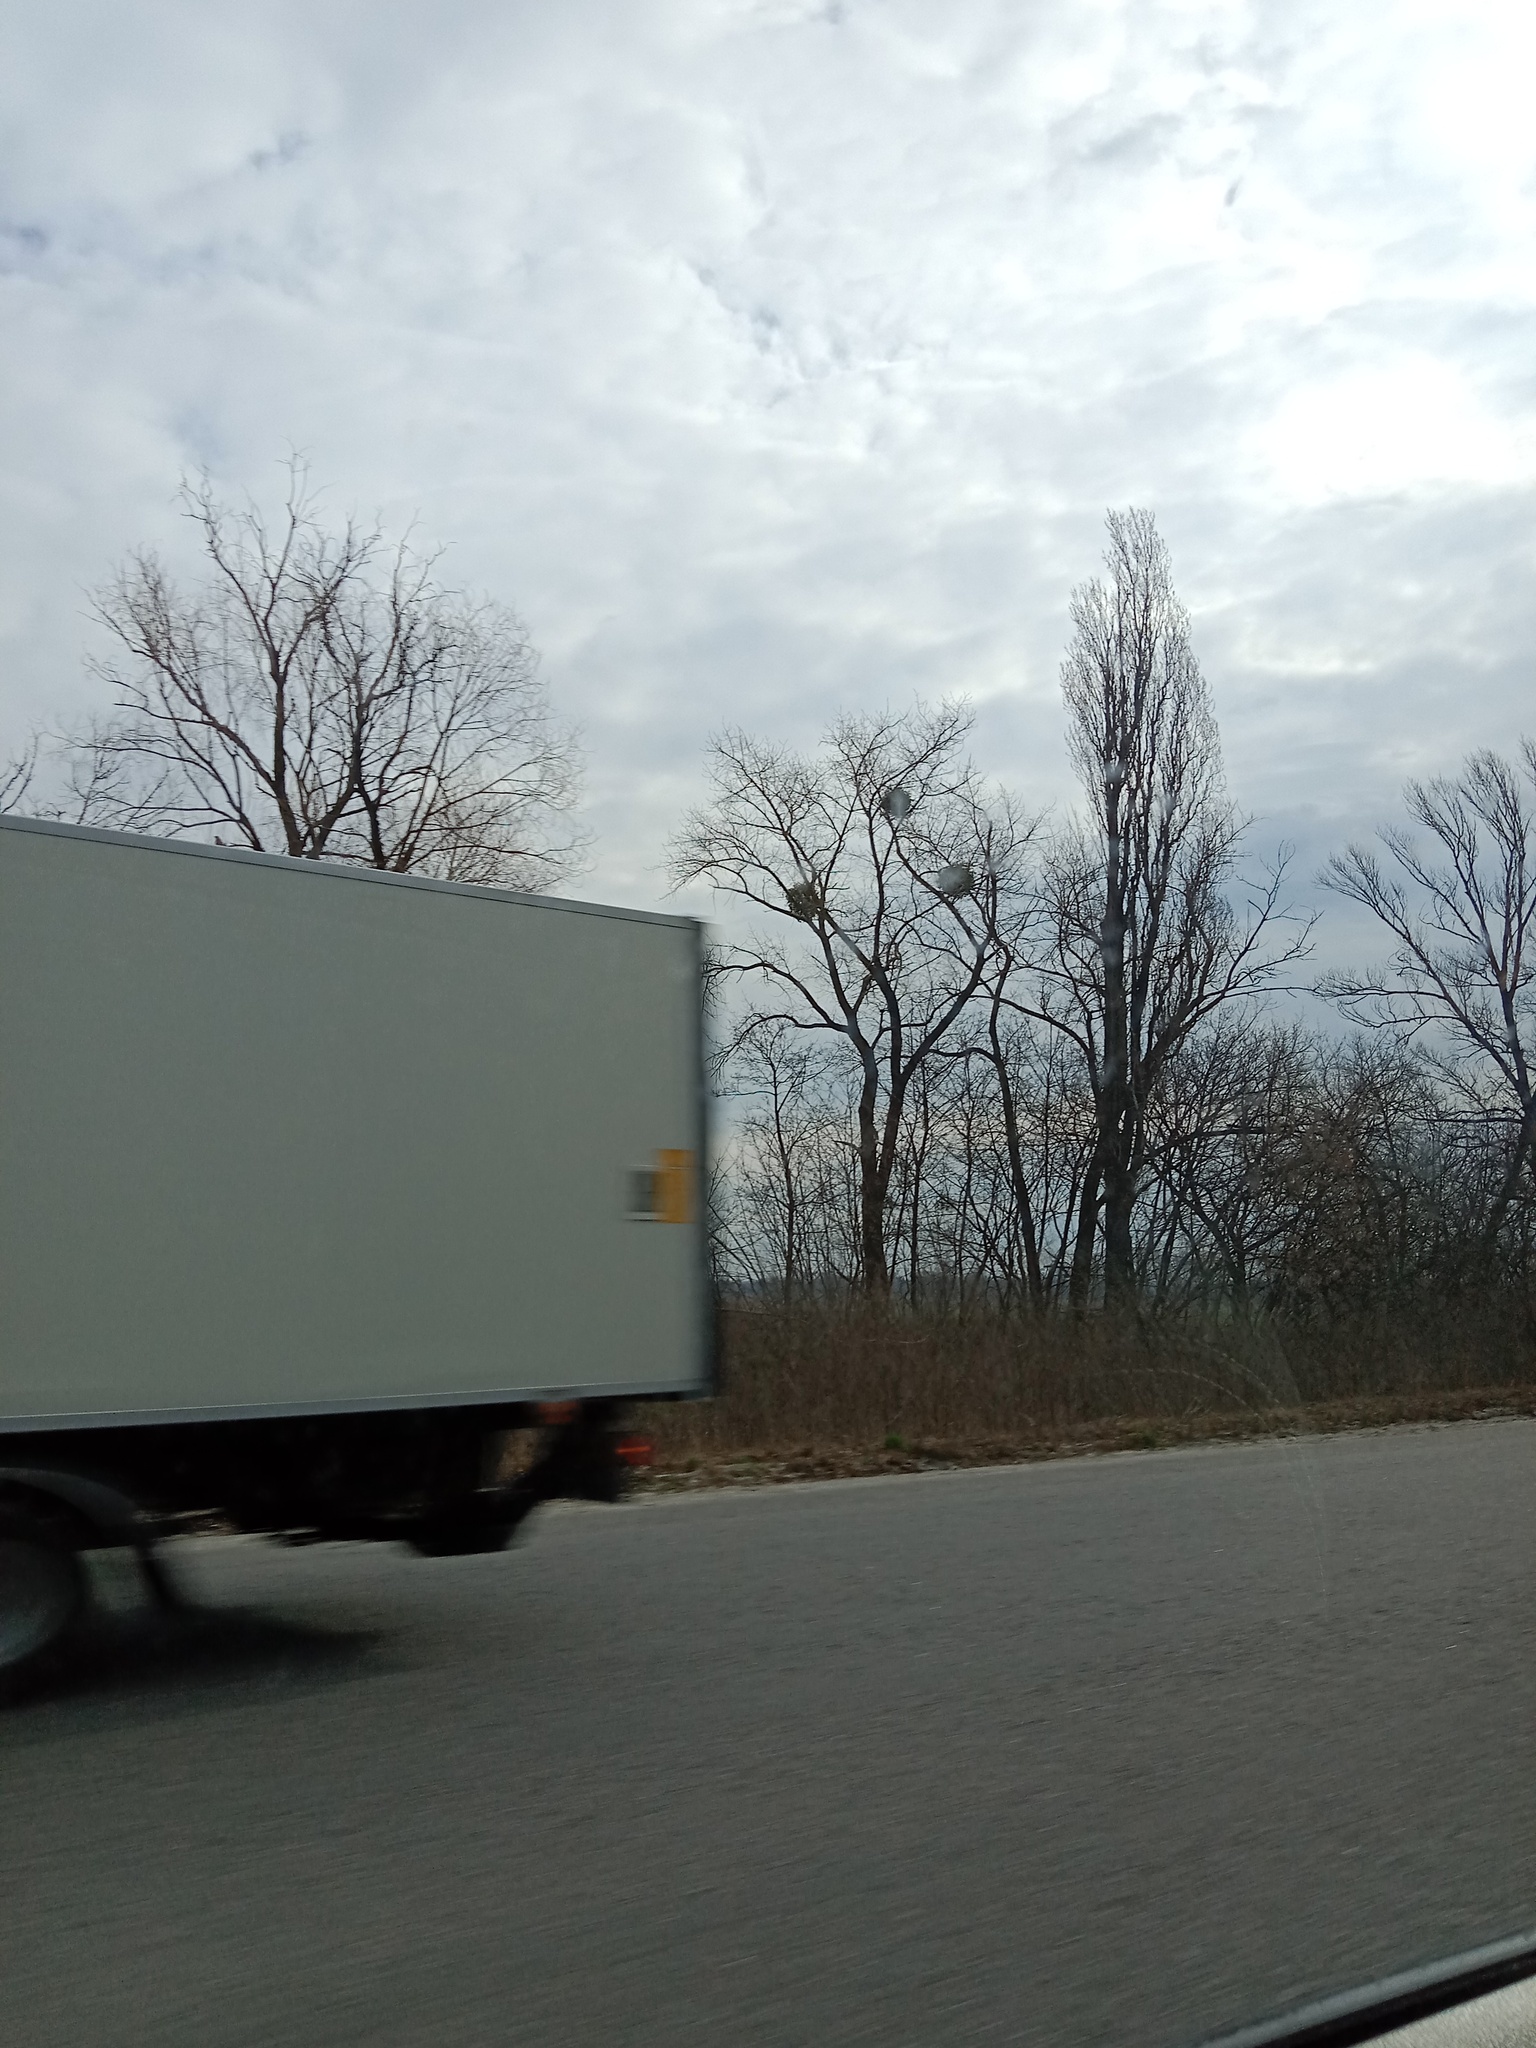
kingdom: Plantae
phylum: Tracheophyta
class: Magnoliopsida
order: Santalales
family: Viscaceae
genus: Viscum
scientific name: Viscum album
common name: Mistletoe
